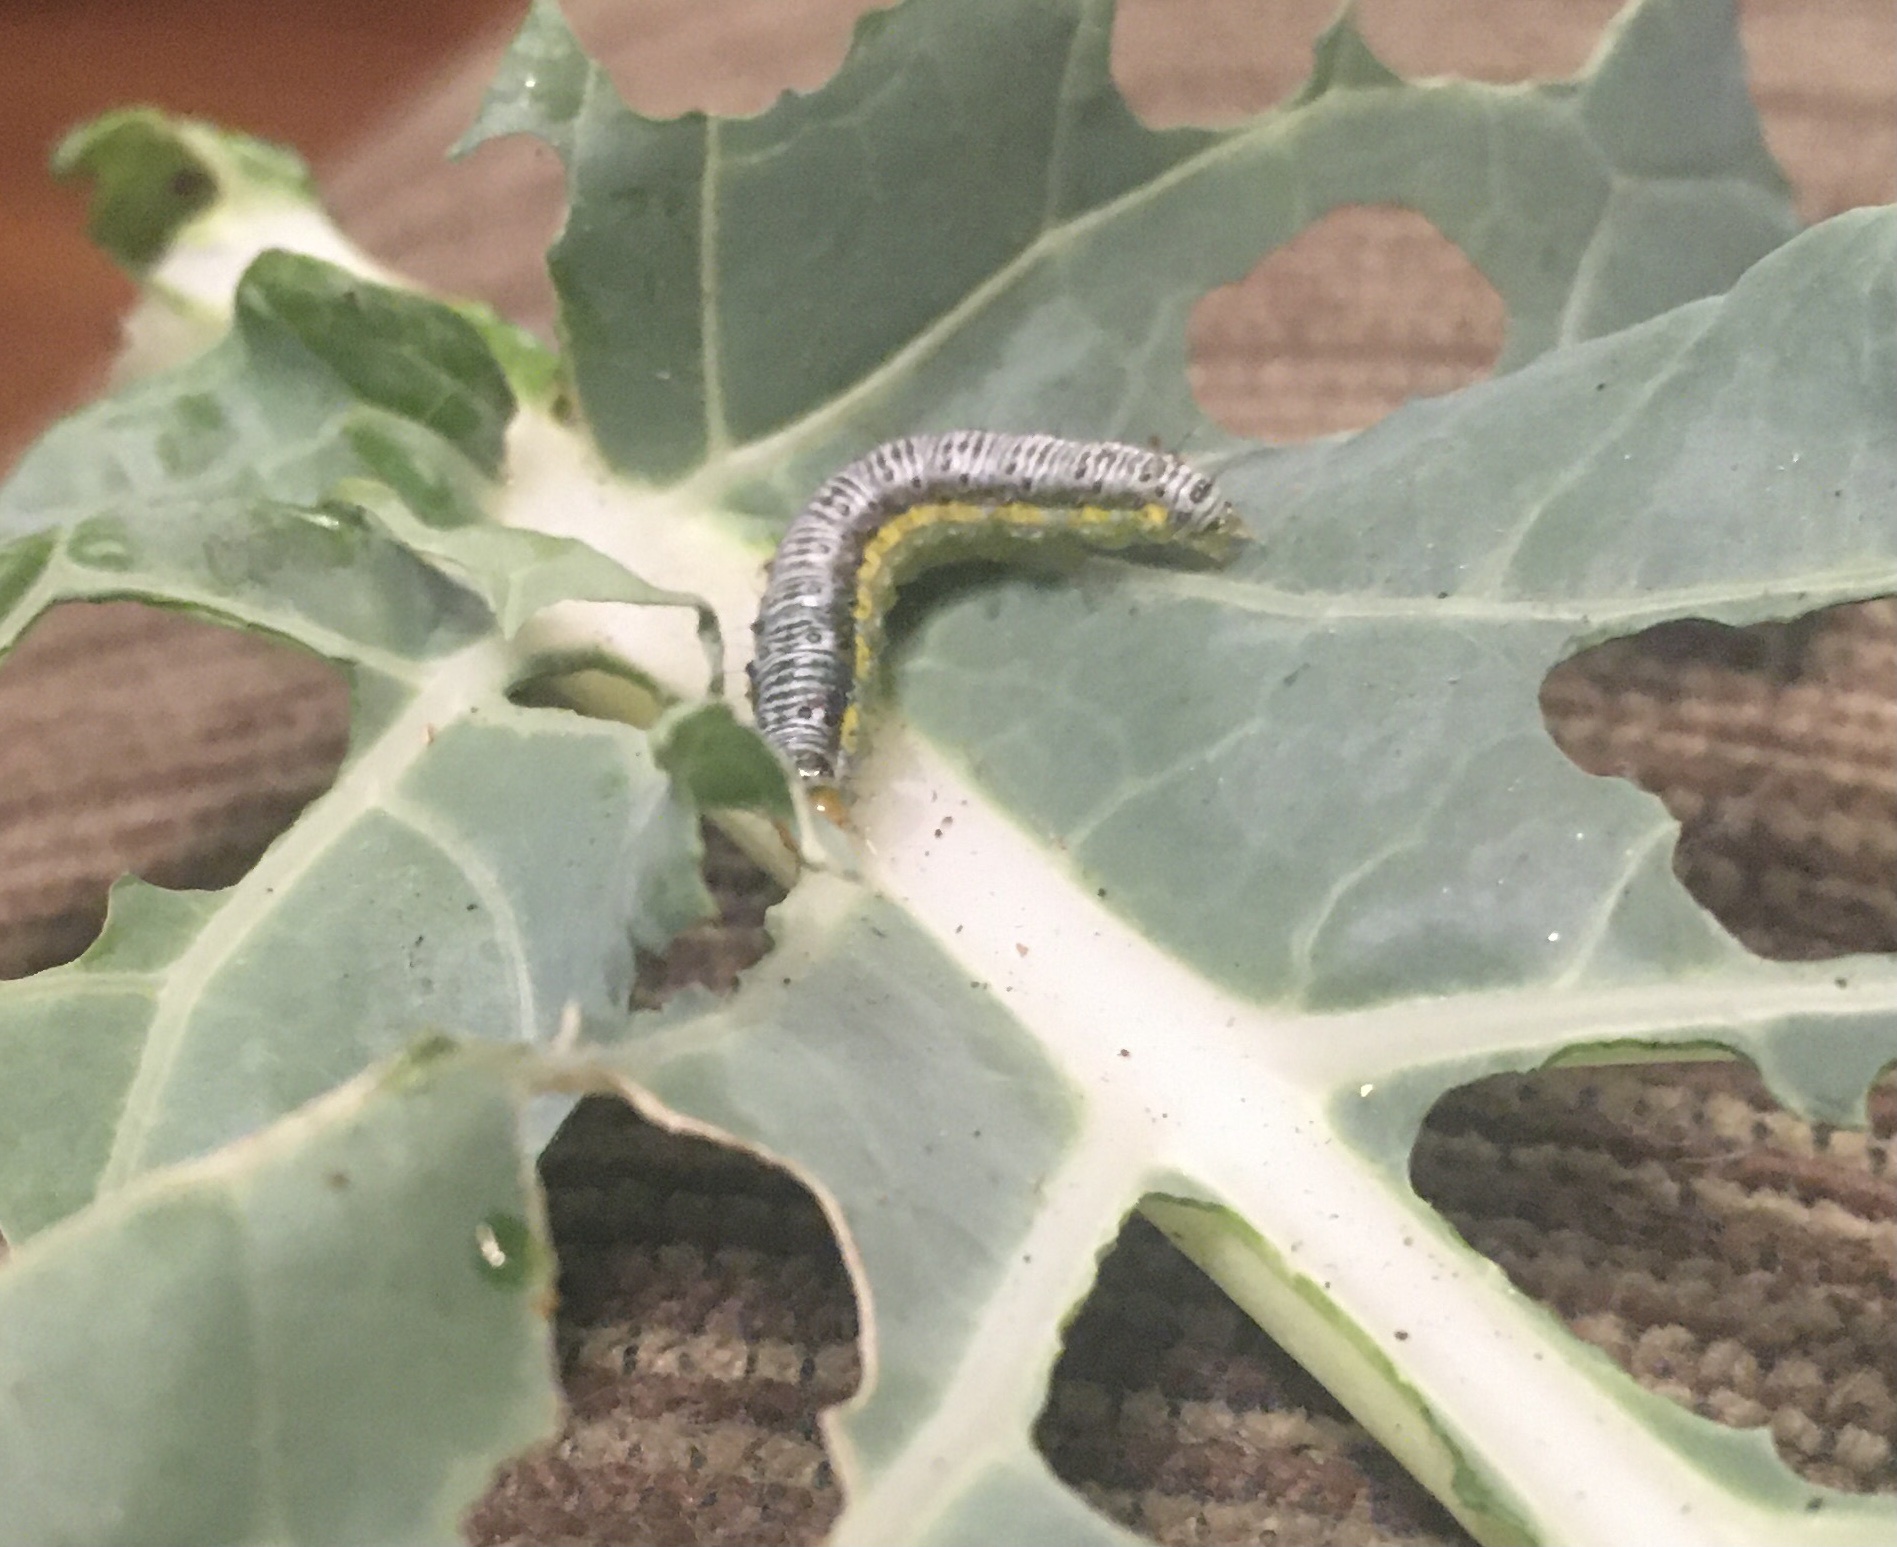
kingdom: Animalia
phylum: Arthropoda
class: Insecta
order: Lepidoptera
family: Crambidae
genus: Evergestis
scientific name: Evergestis rimosalis
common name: Cross-striped cabbageworm moth
